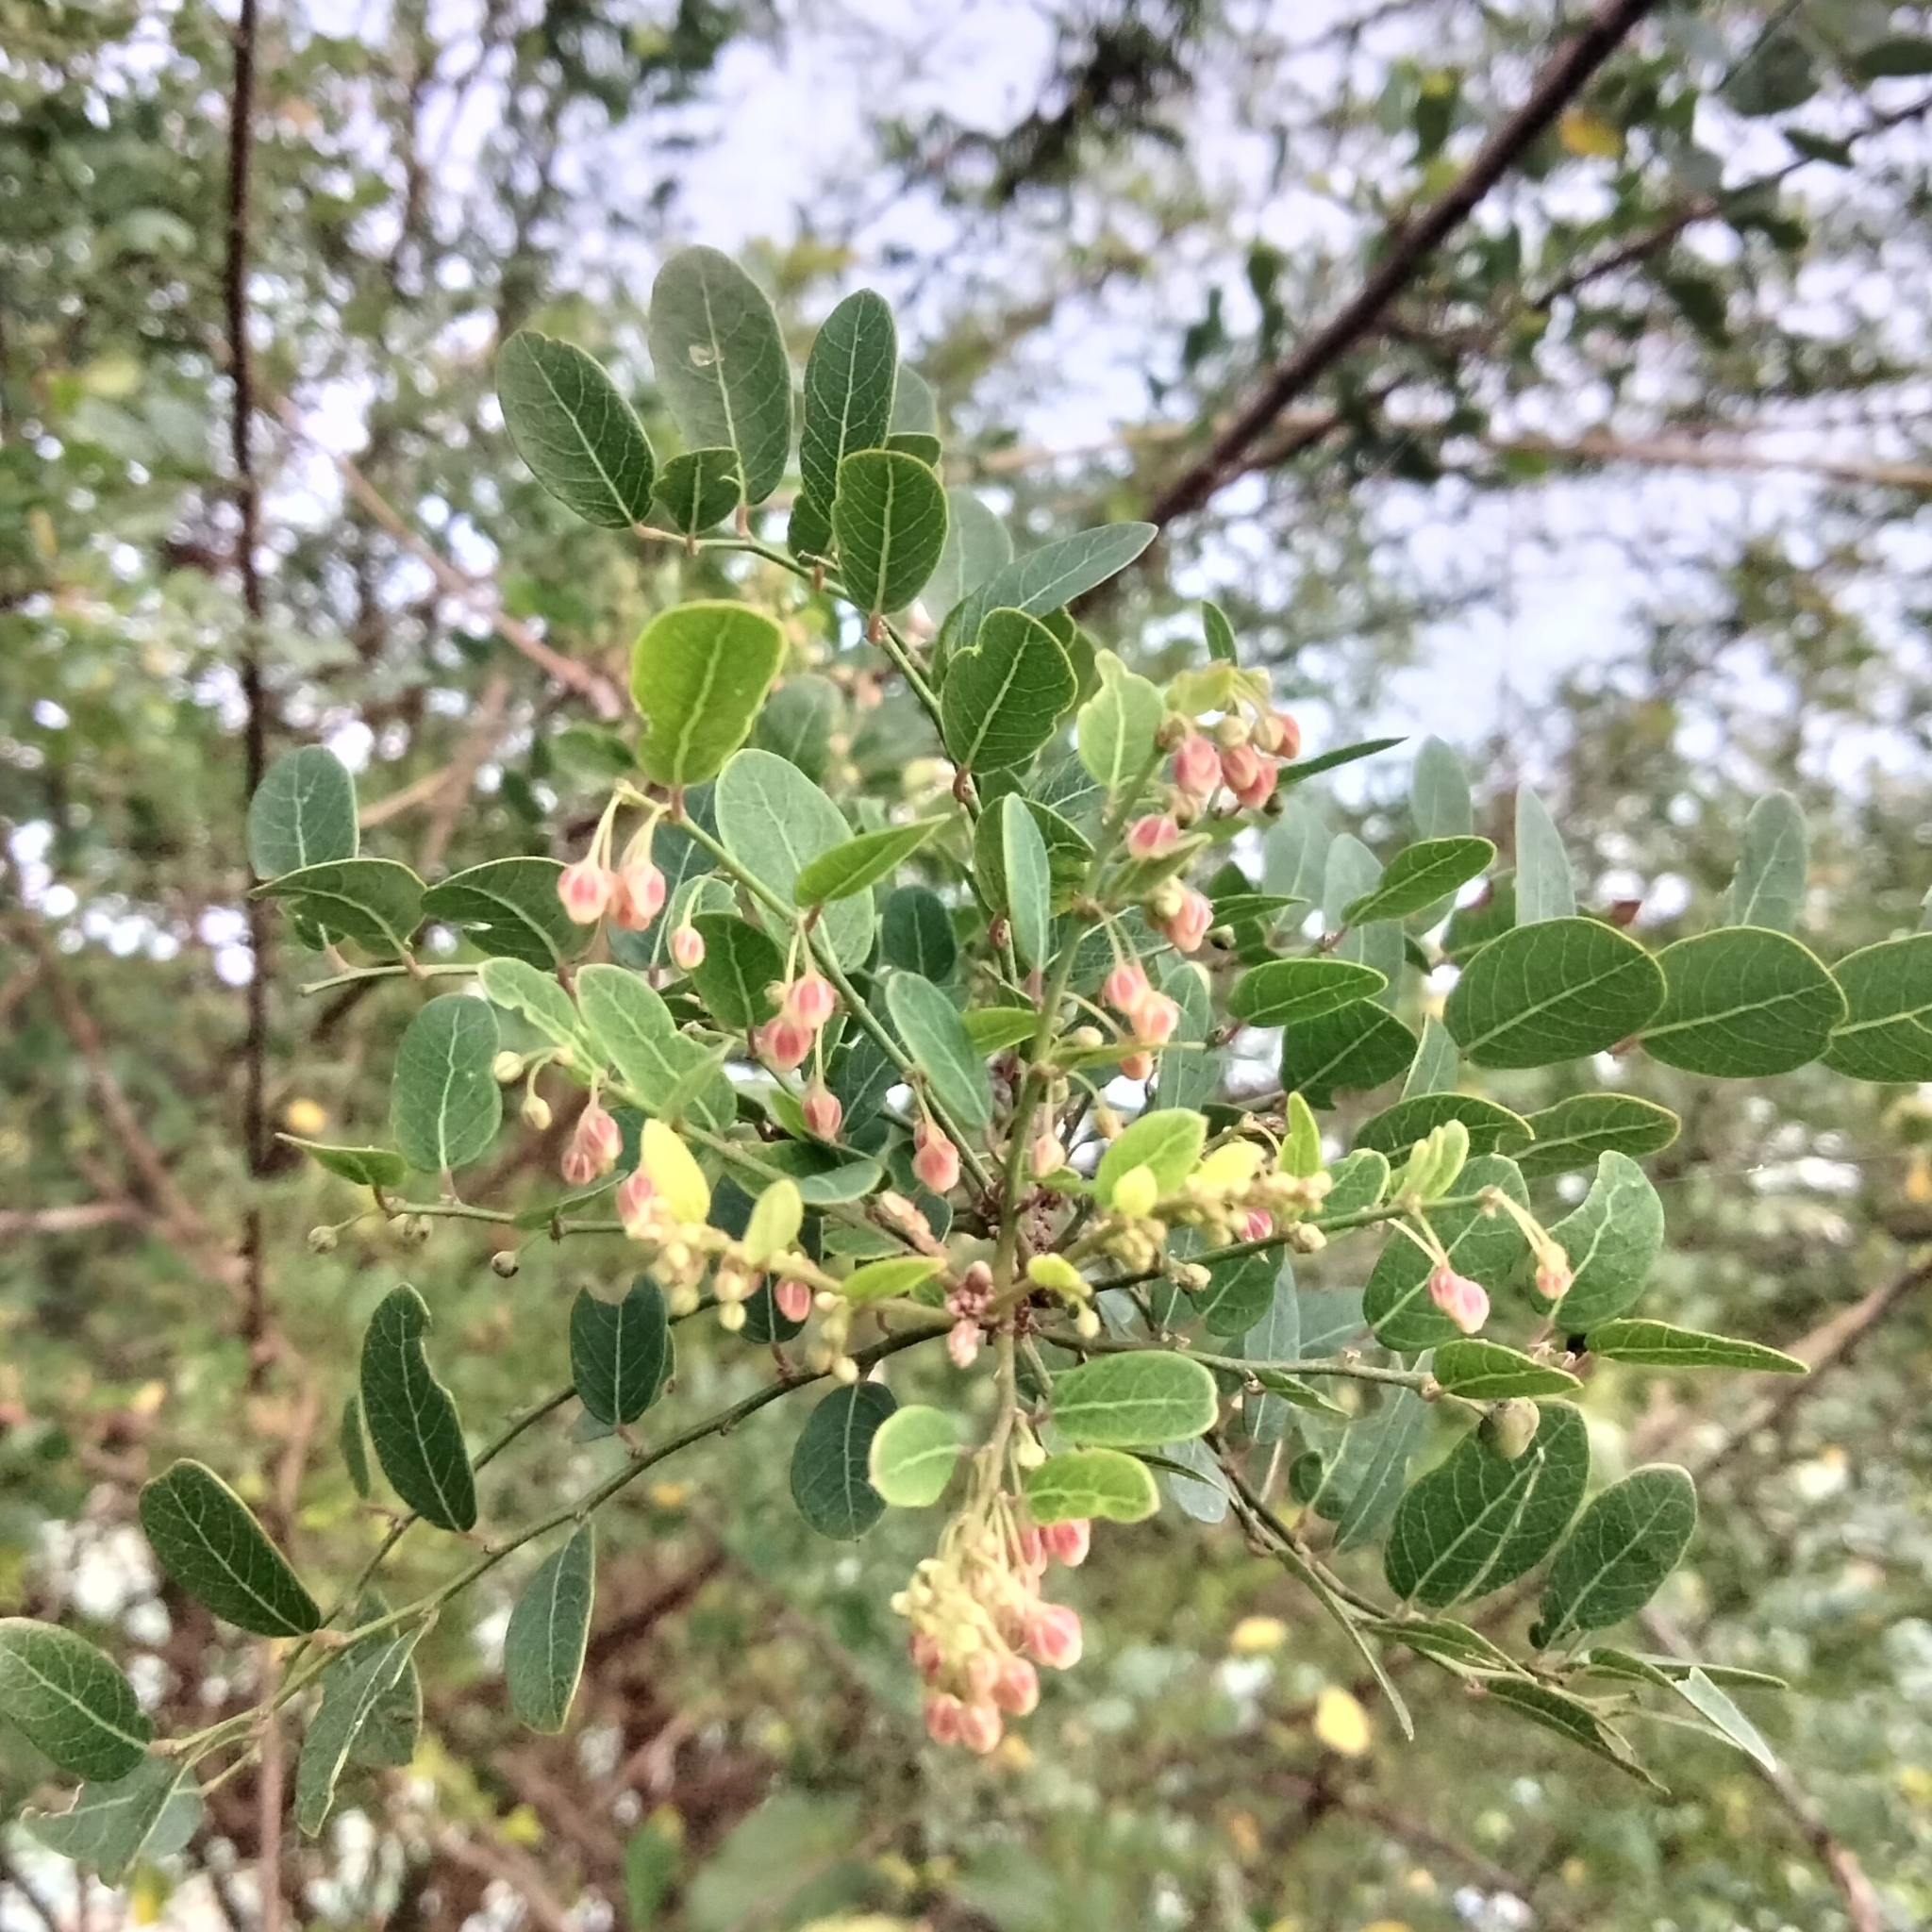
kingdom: Plantae
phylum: Tracheophyta
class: Magnoliopsida
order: Malpighiales
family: Phyllanthaceae
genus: Phyllanthus
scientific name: Phyllanthus reticulatus
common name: Potato bush
